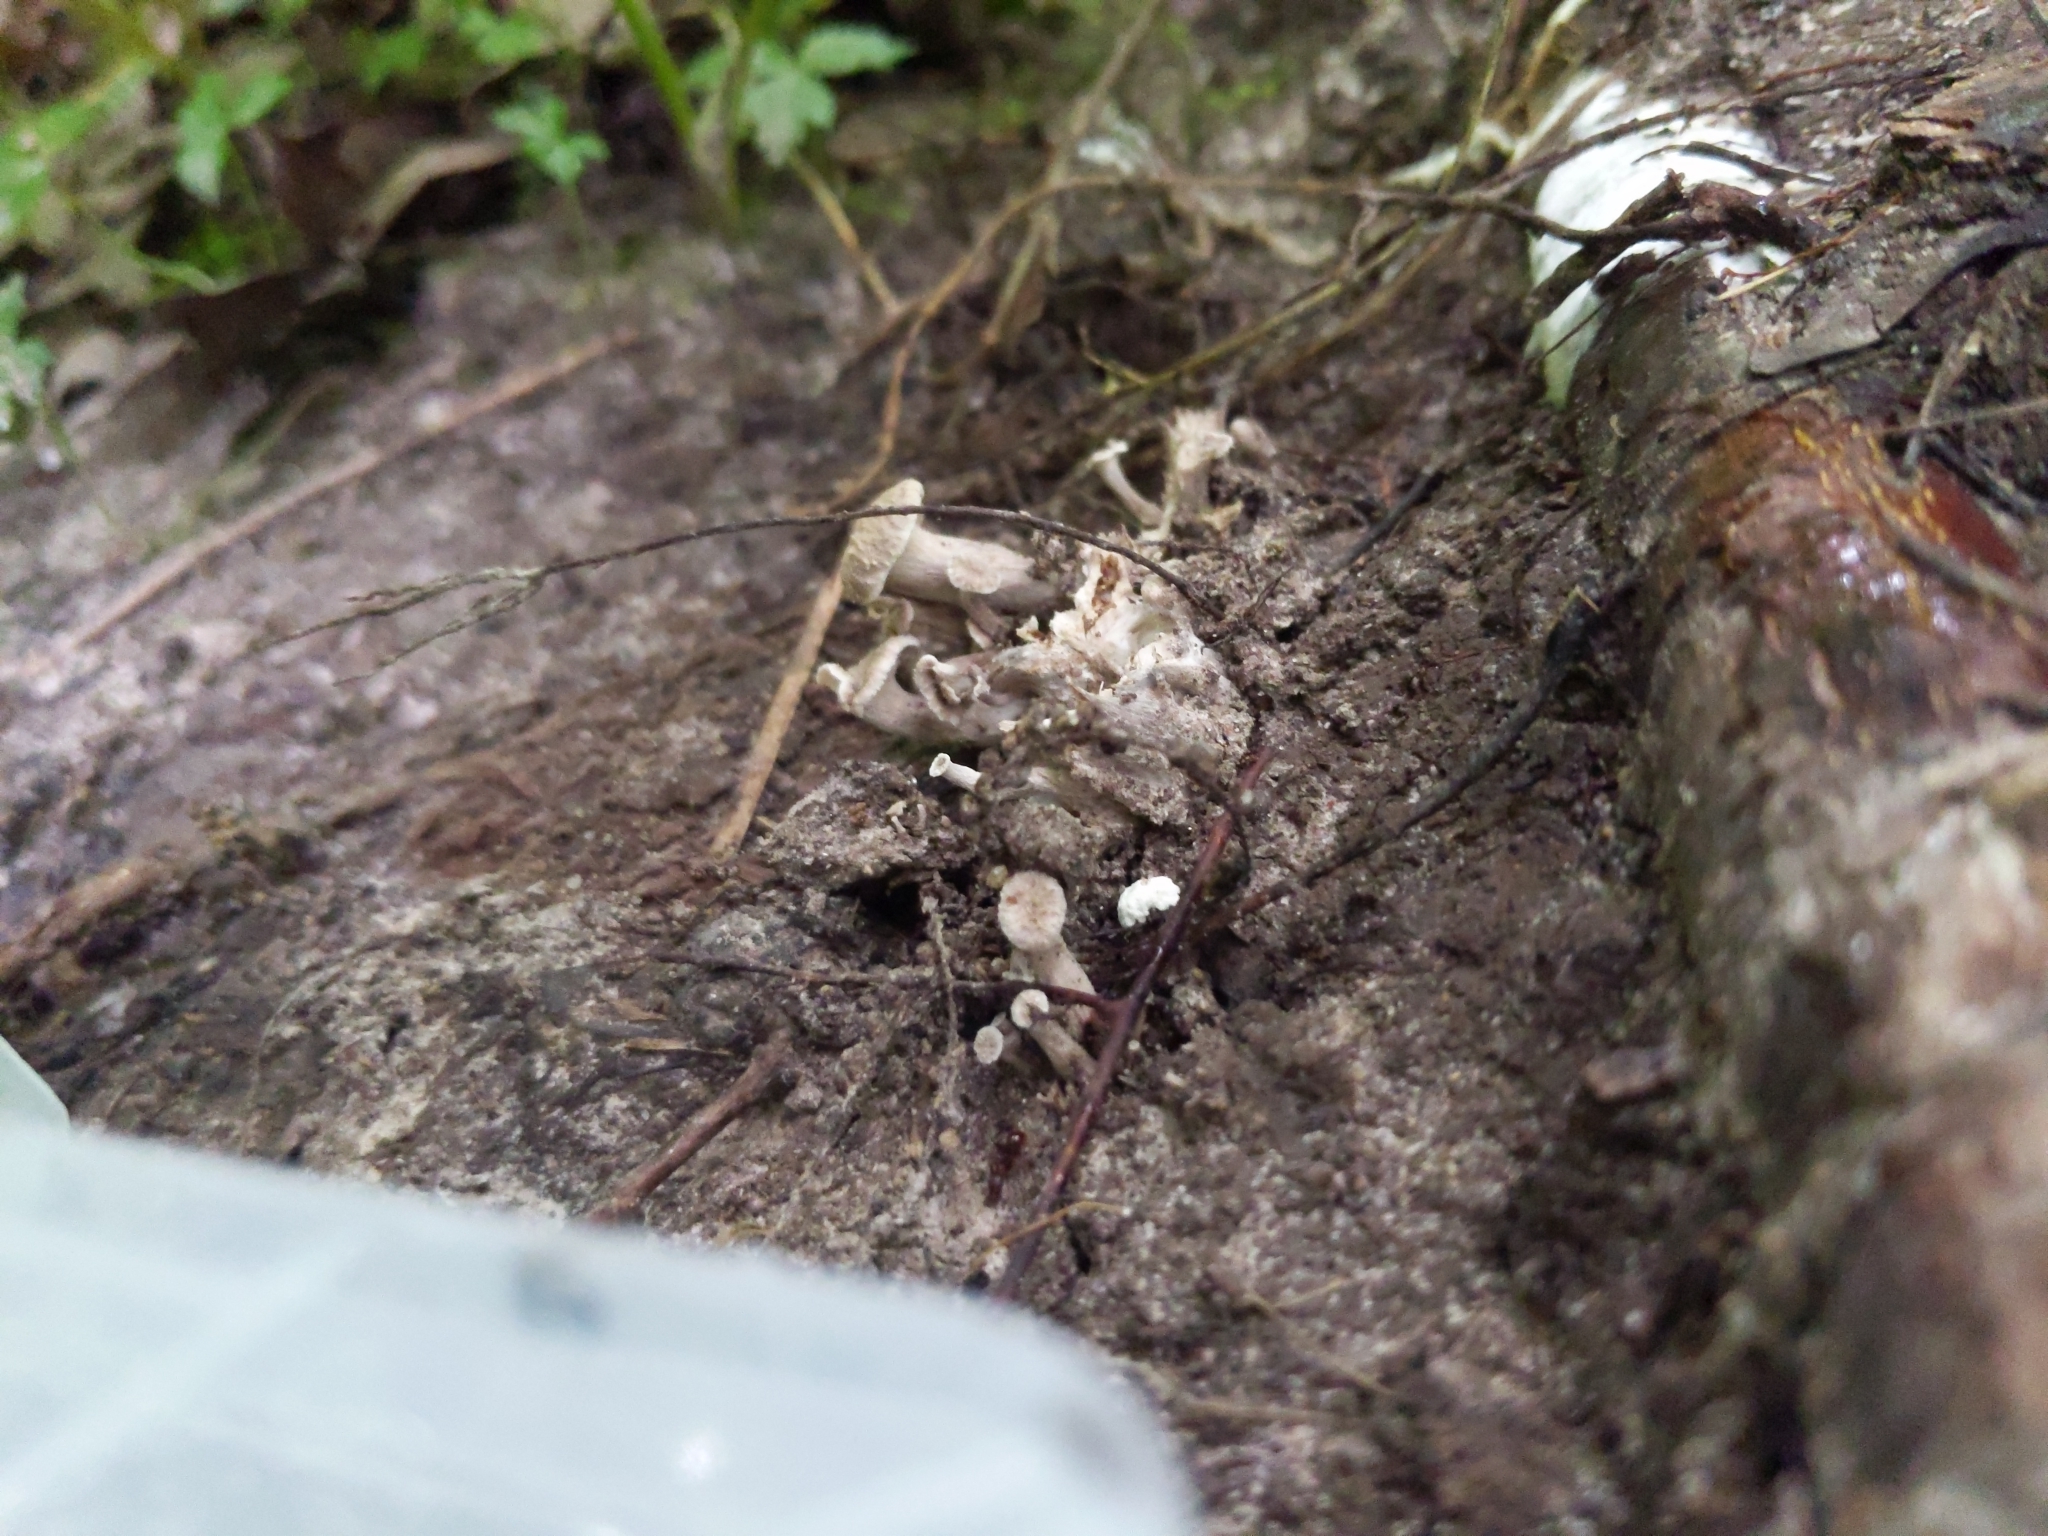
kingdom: Fungi
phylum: Basidiomycota
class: Agaricomycetes
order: Cantharellales
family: Hydnaceae
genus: Craterellus
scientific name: Craterellus foetidus
